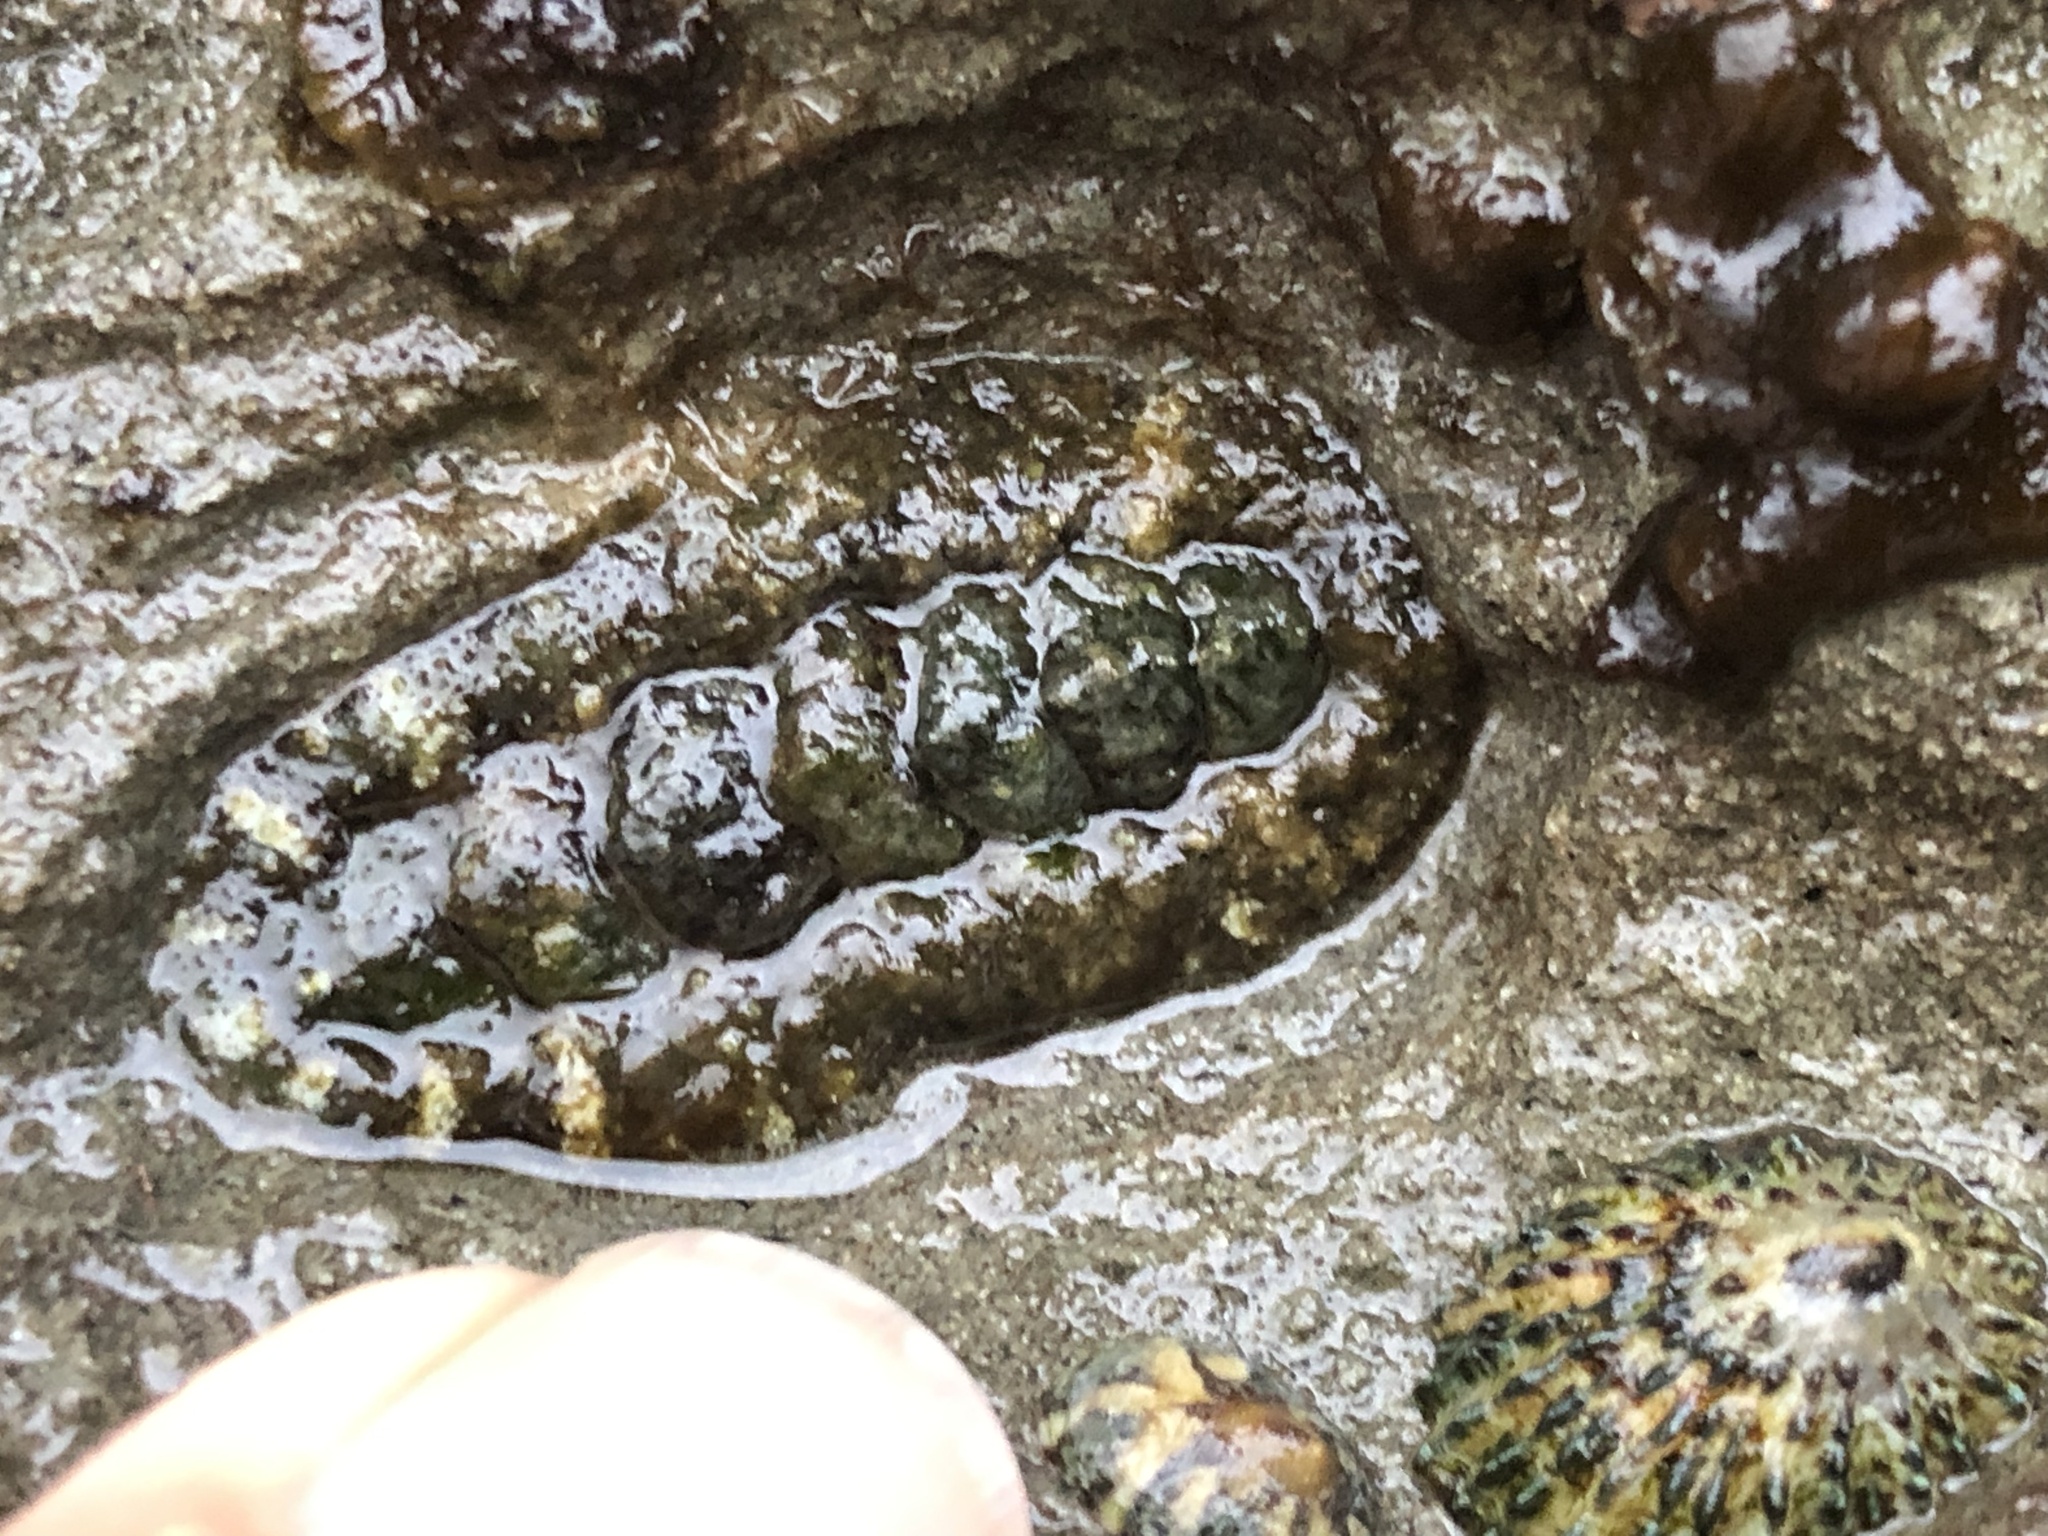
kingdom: Animalia
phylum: Mollusca
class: Polyplacophora
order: Chitonida
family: Tonicellidae
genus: Nuttallina
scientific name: Nuttallina californica
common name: California nuttall chiton
